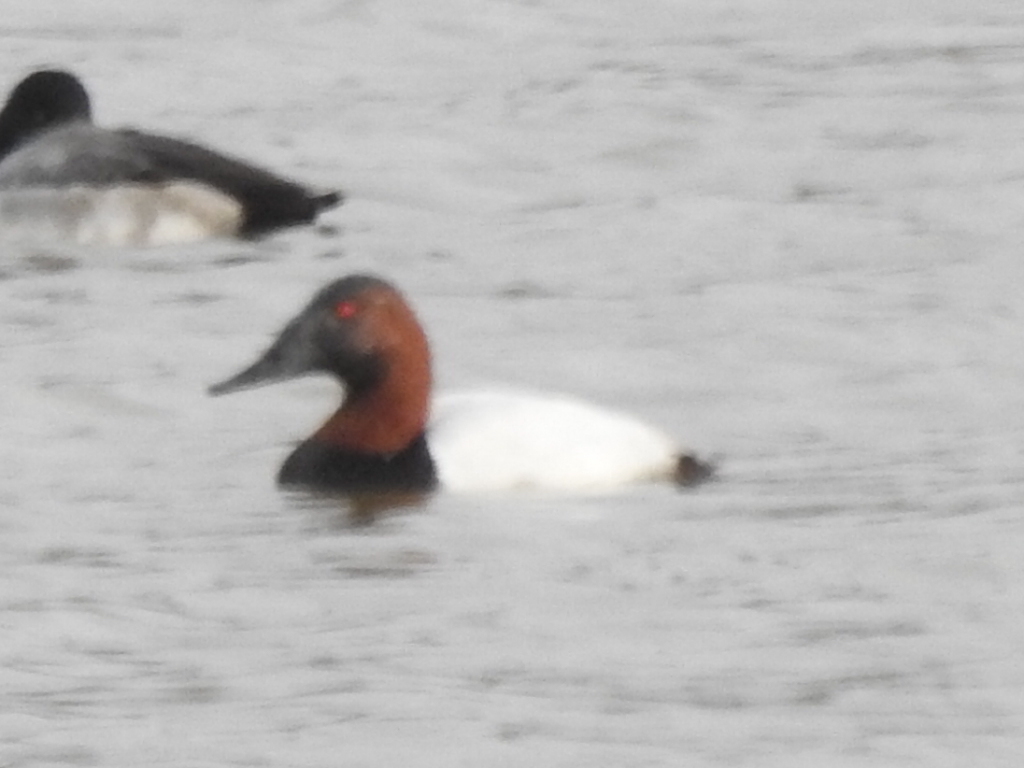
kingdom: Animalia
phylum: Chordata
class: Aves
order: Anseriformes
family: Anatidae
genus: Aythya
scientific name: Aythya valisineria
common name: Canvasback
